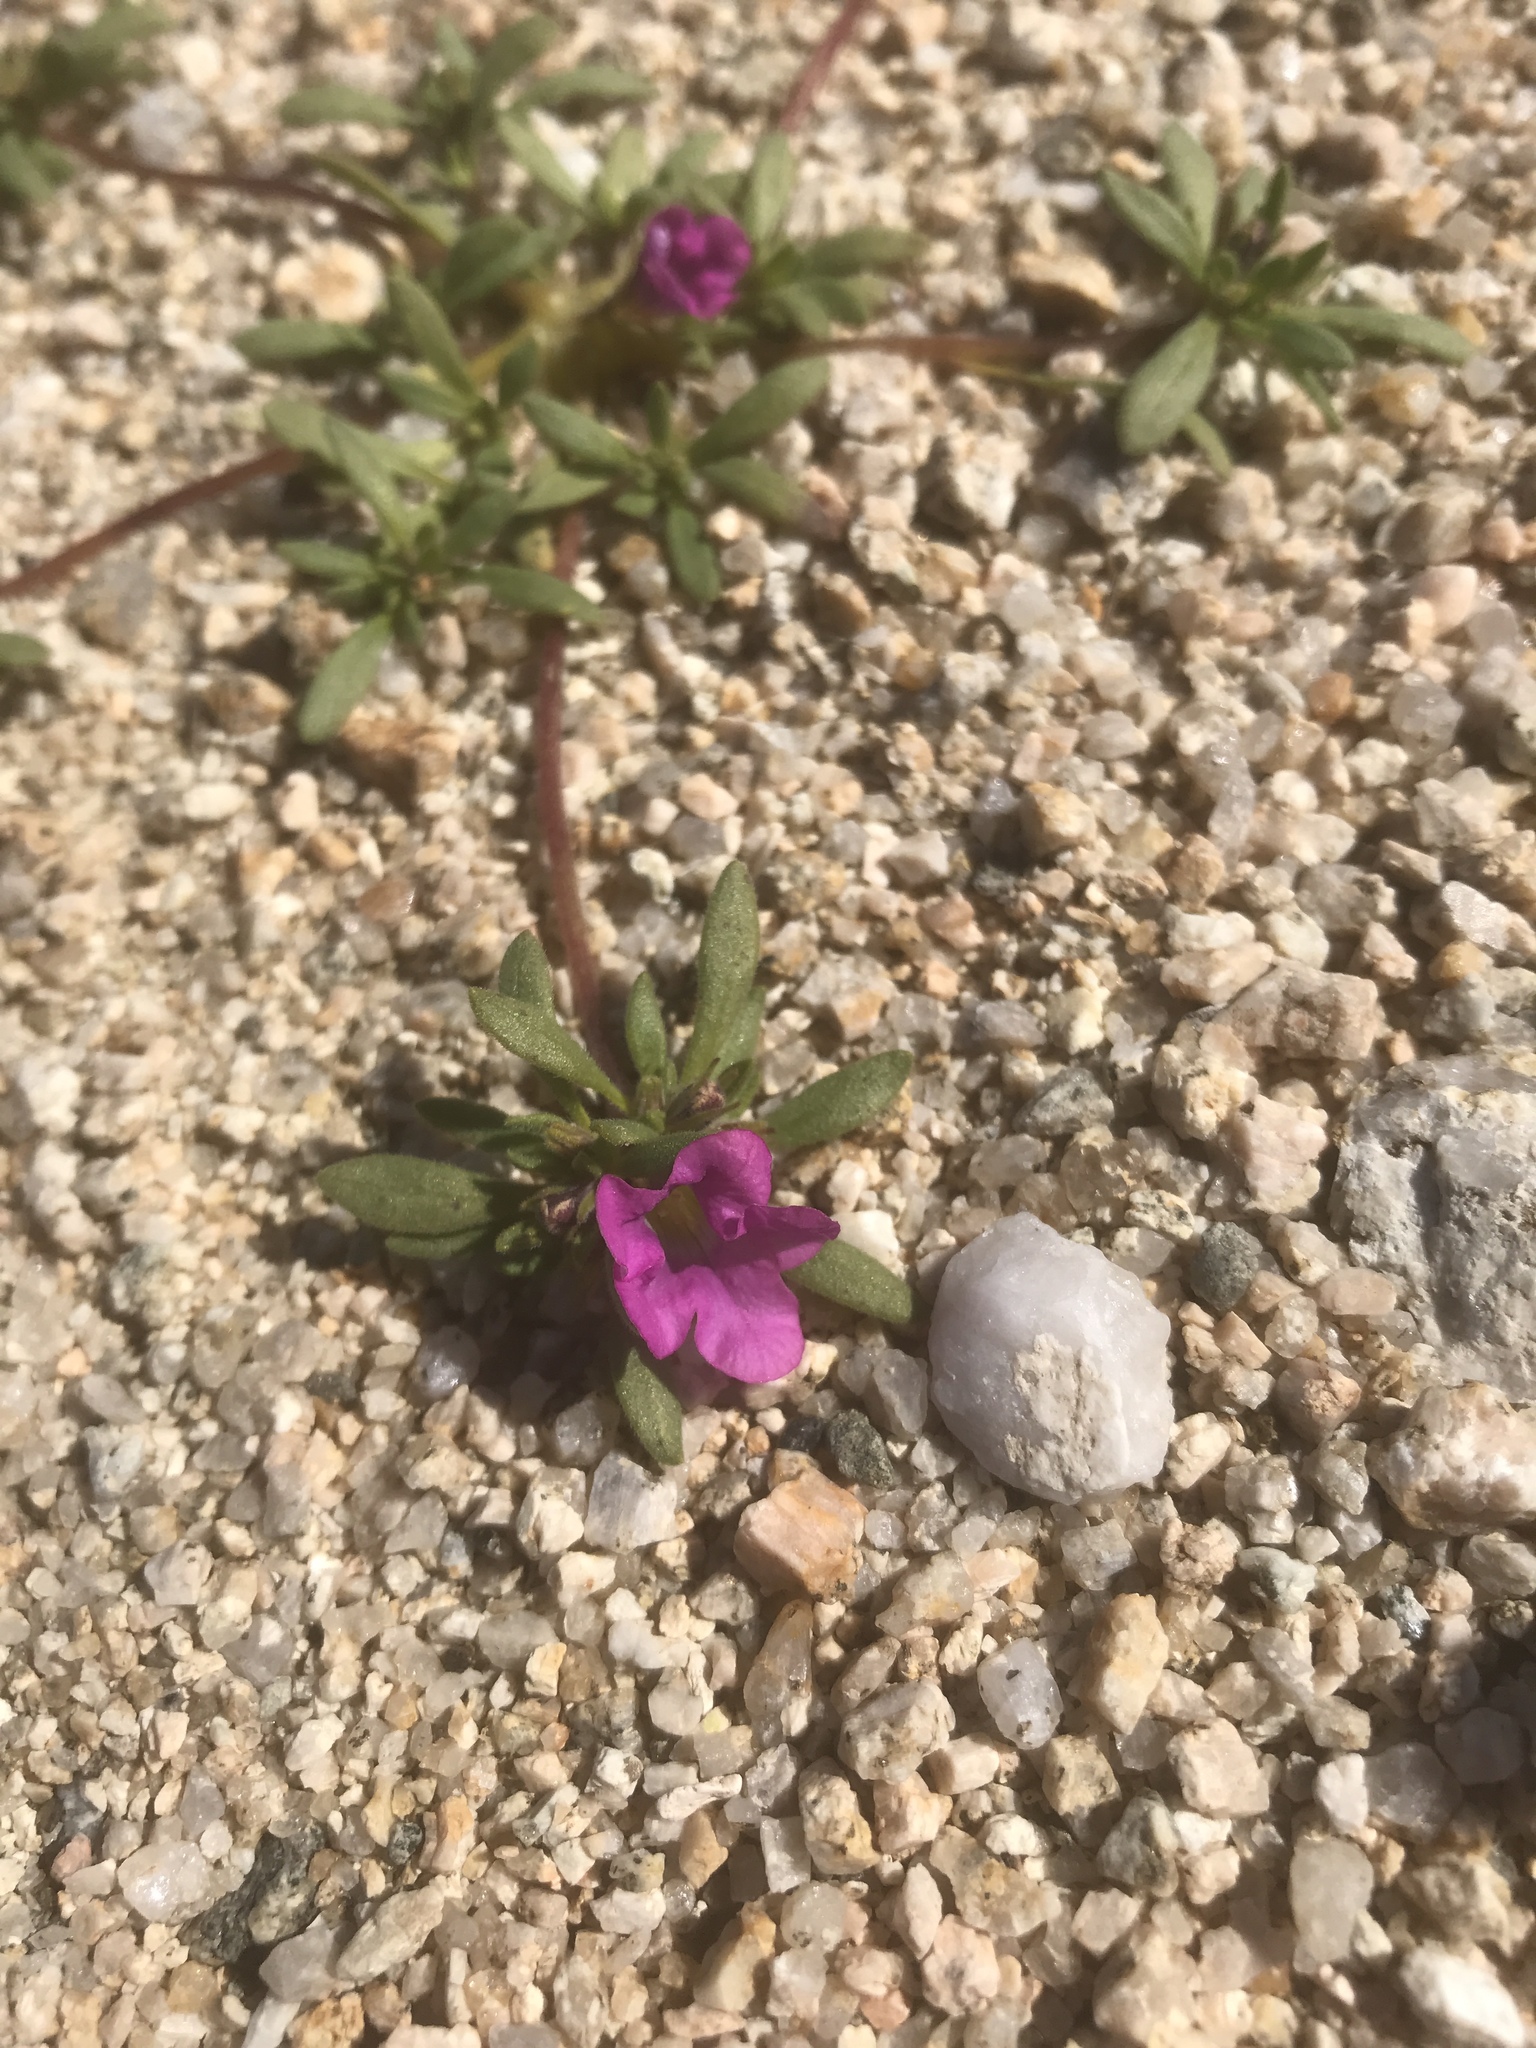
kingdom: Plantae
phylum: Tracheophyta
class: Magnoliopsida
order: Boraginales
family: Namaceae
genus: Nama
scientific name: Nama demissa
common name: Leafy nama
